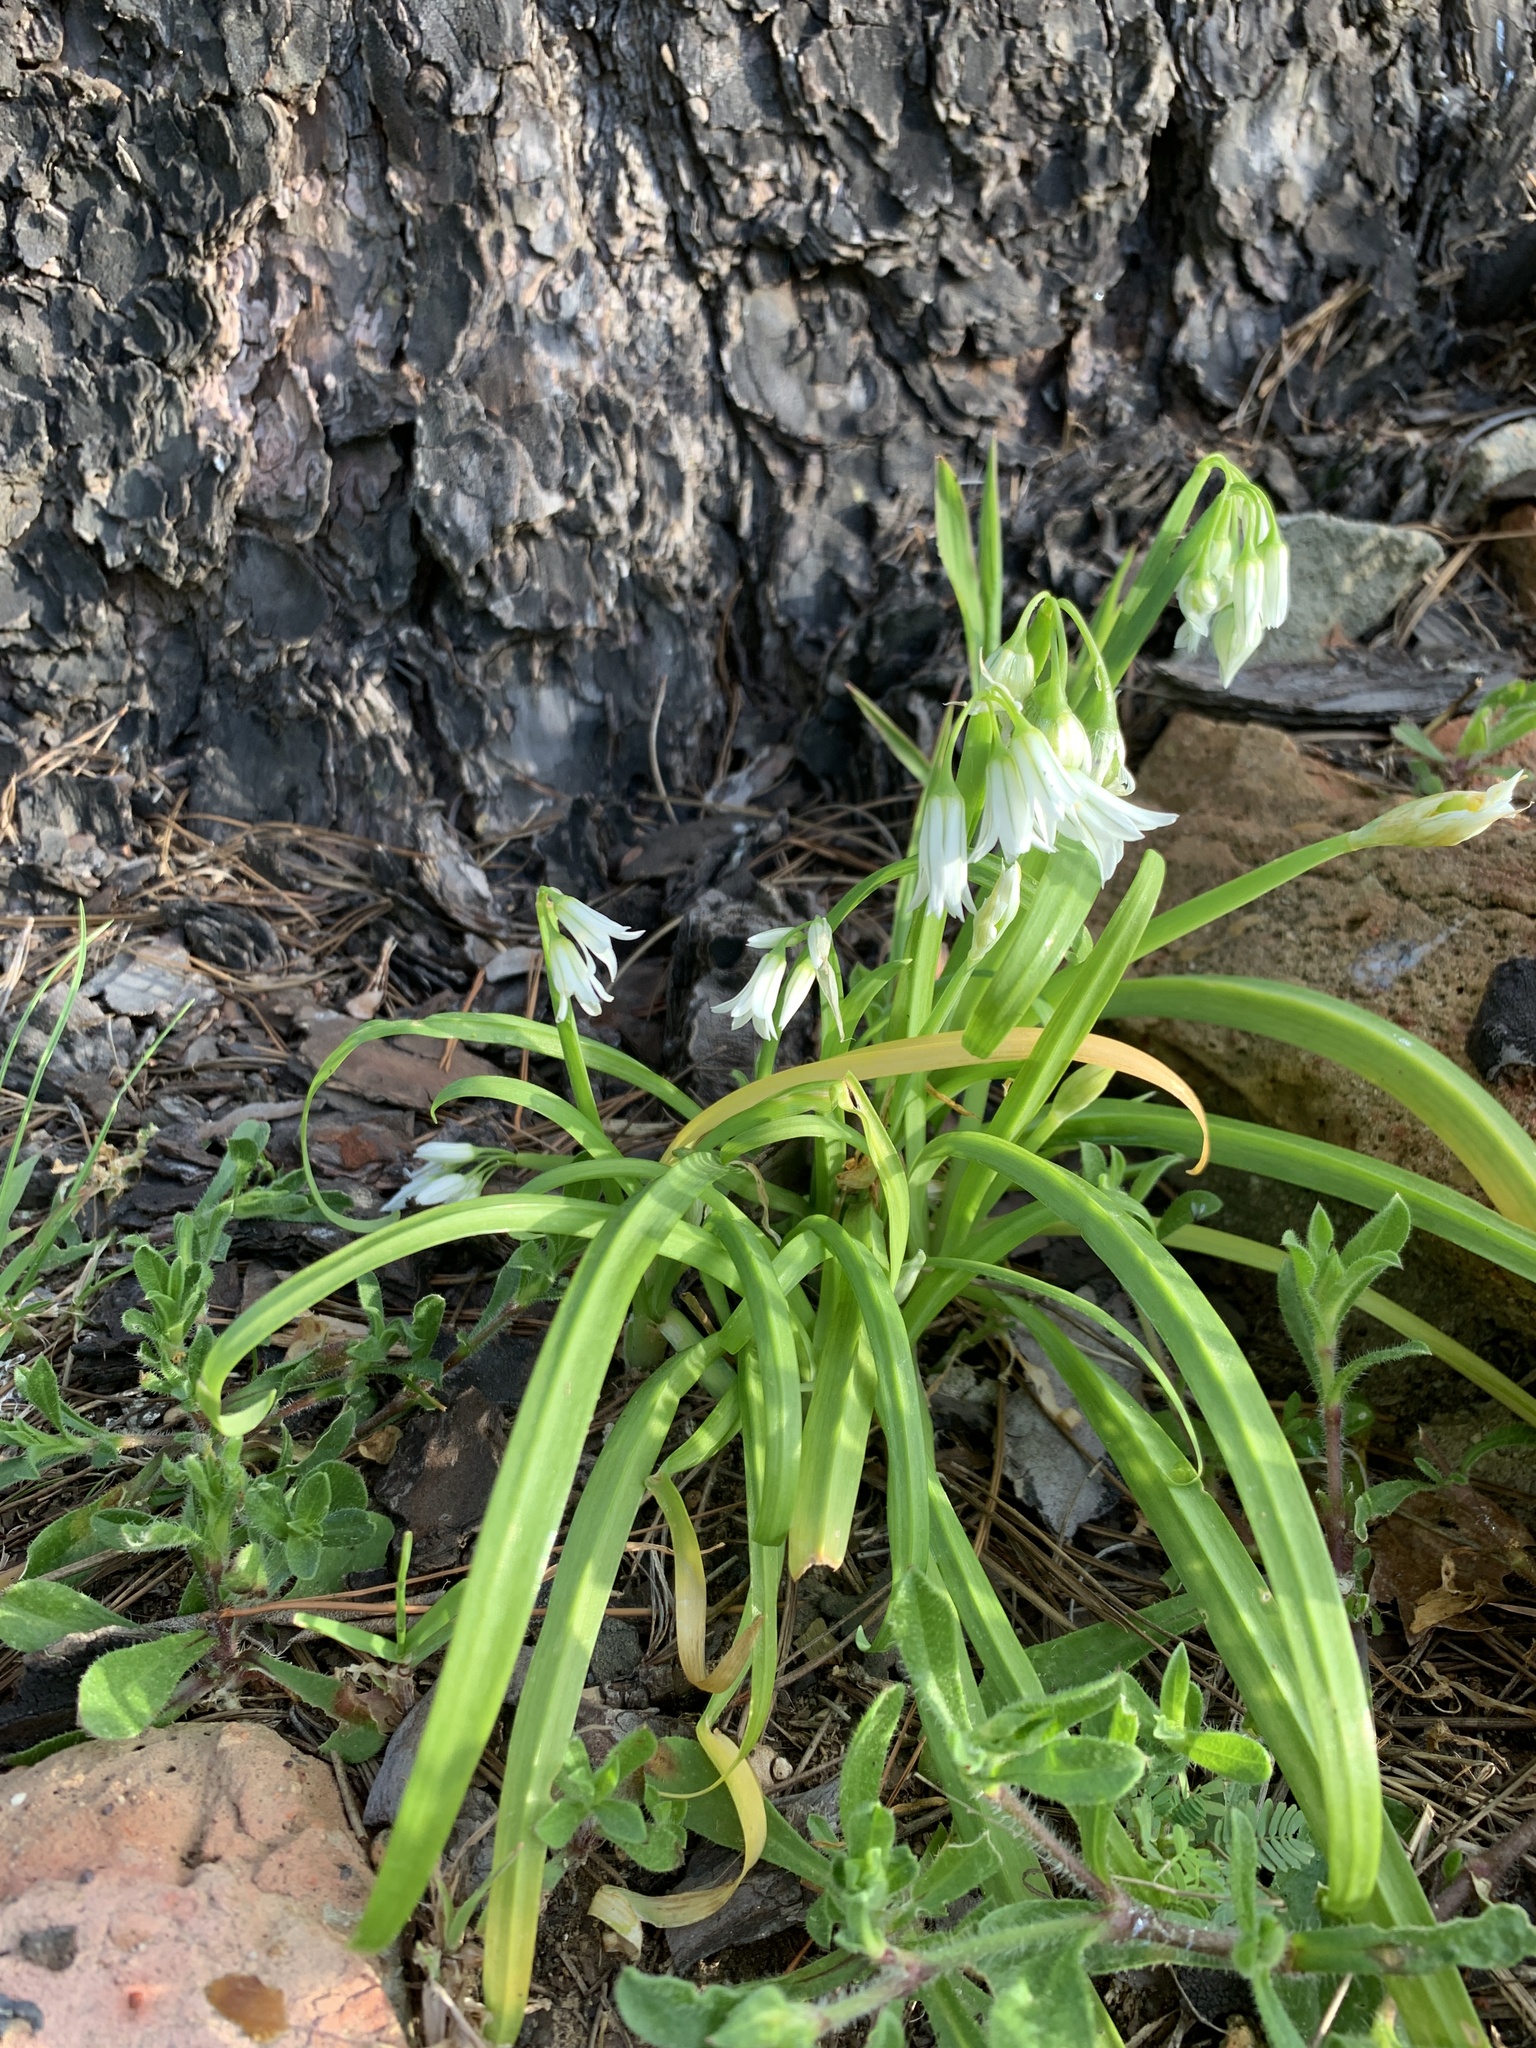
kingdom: Plantae
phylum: Tracheophyta
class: Liliopsida
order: Asparagales
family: Amaryllidaceae
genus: Allium
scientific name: Allium triquetrum
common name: Three-cornered garlic
